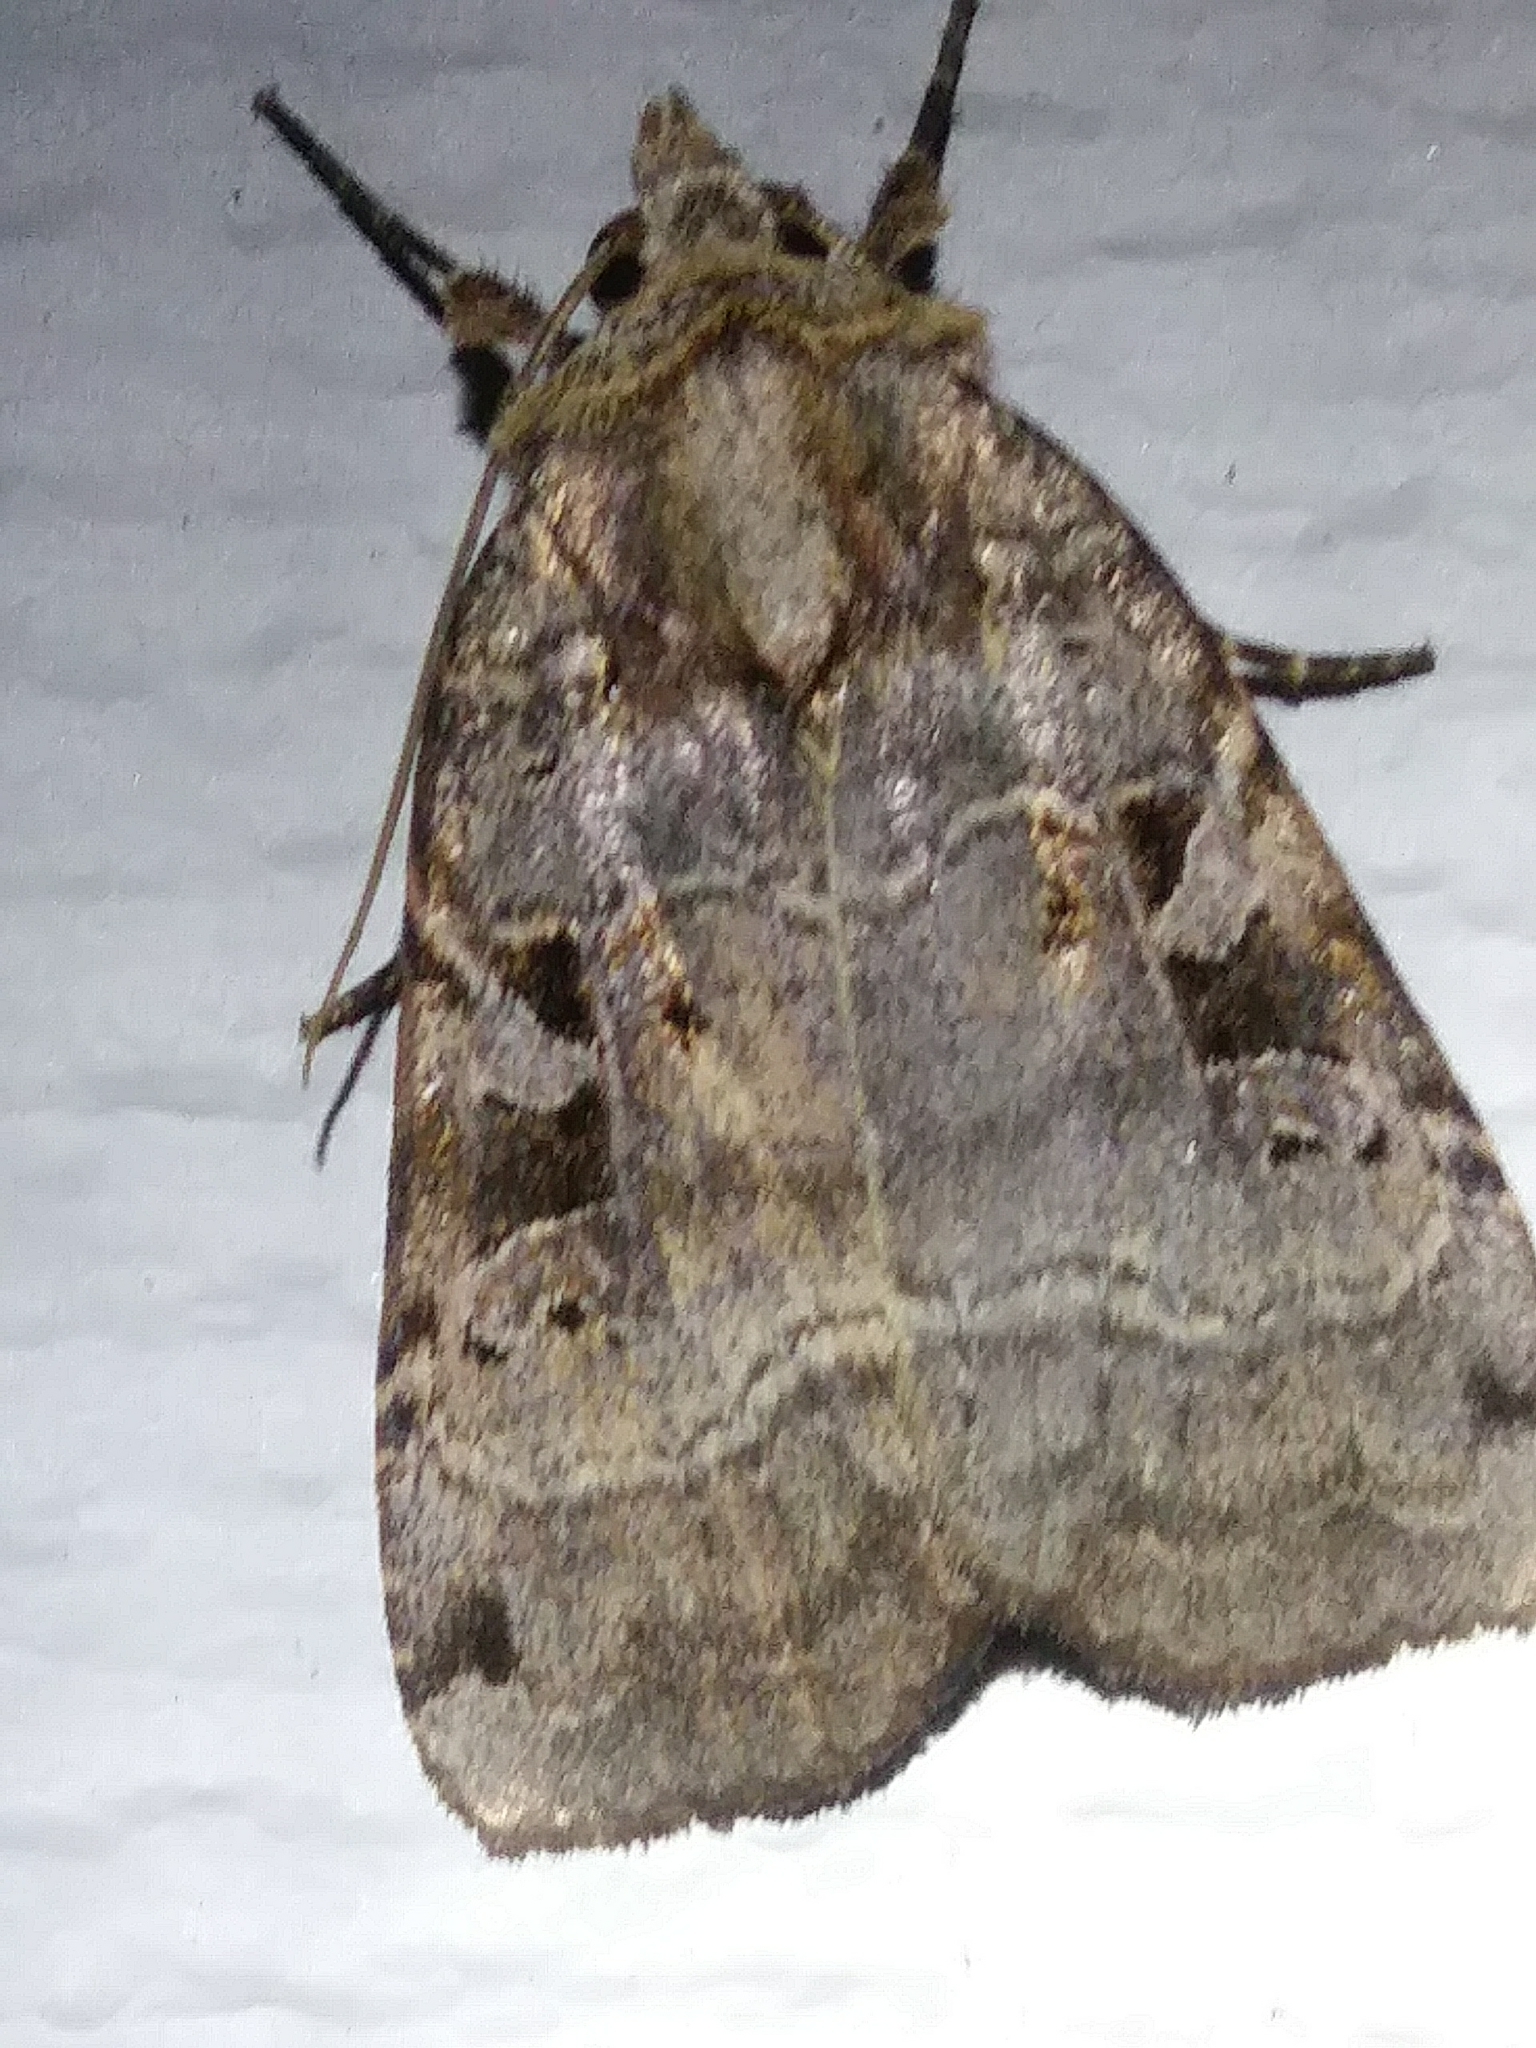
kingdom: Animalia
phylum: Arthropoda
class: Insecta
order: Lepidoptera
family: Noctuidae
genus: Xestia
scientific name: Xestia normaniana
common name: Norman's dart moth
